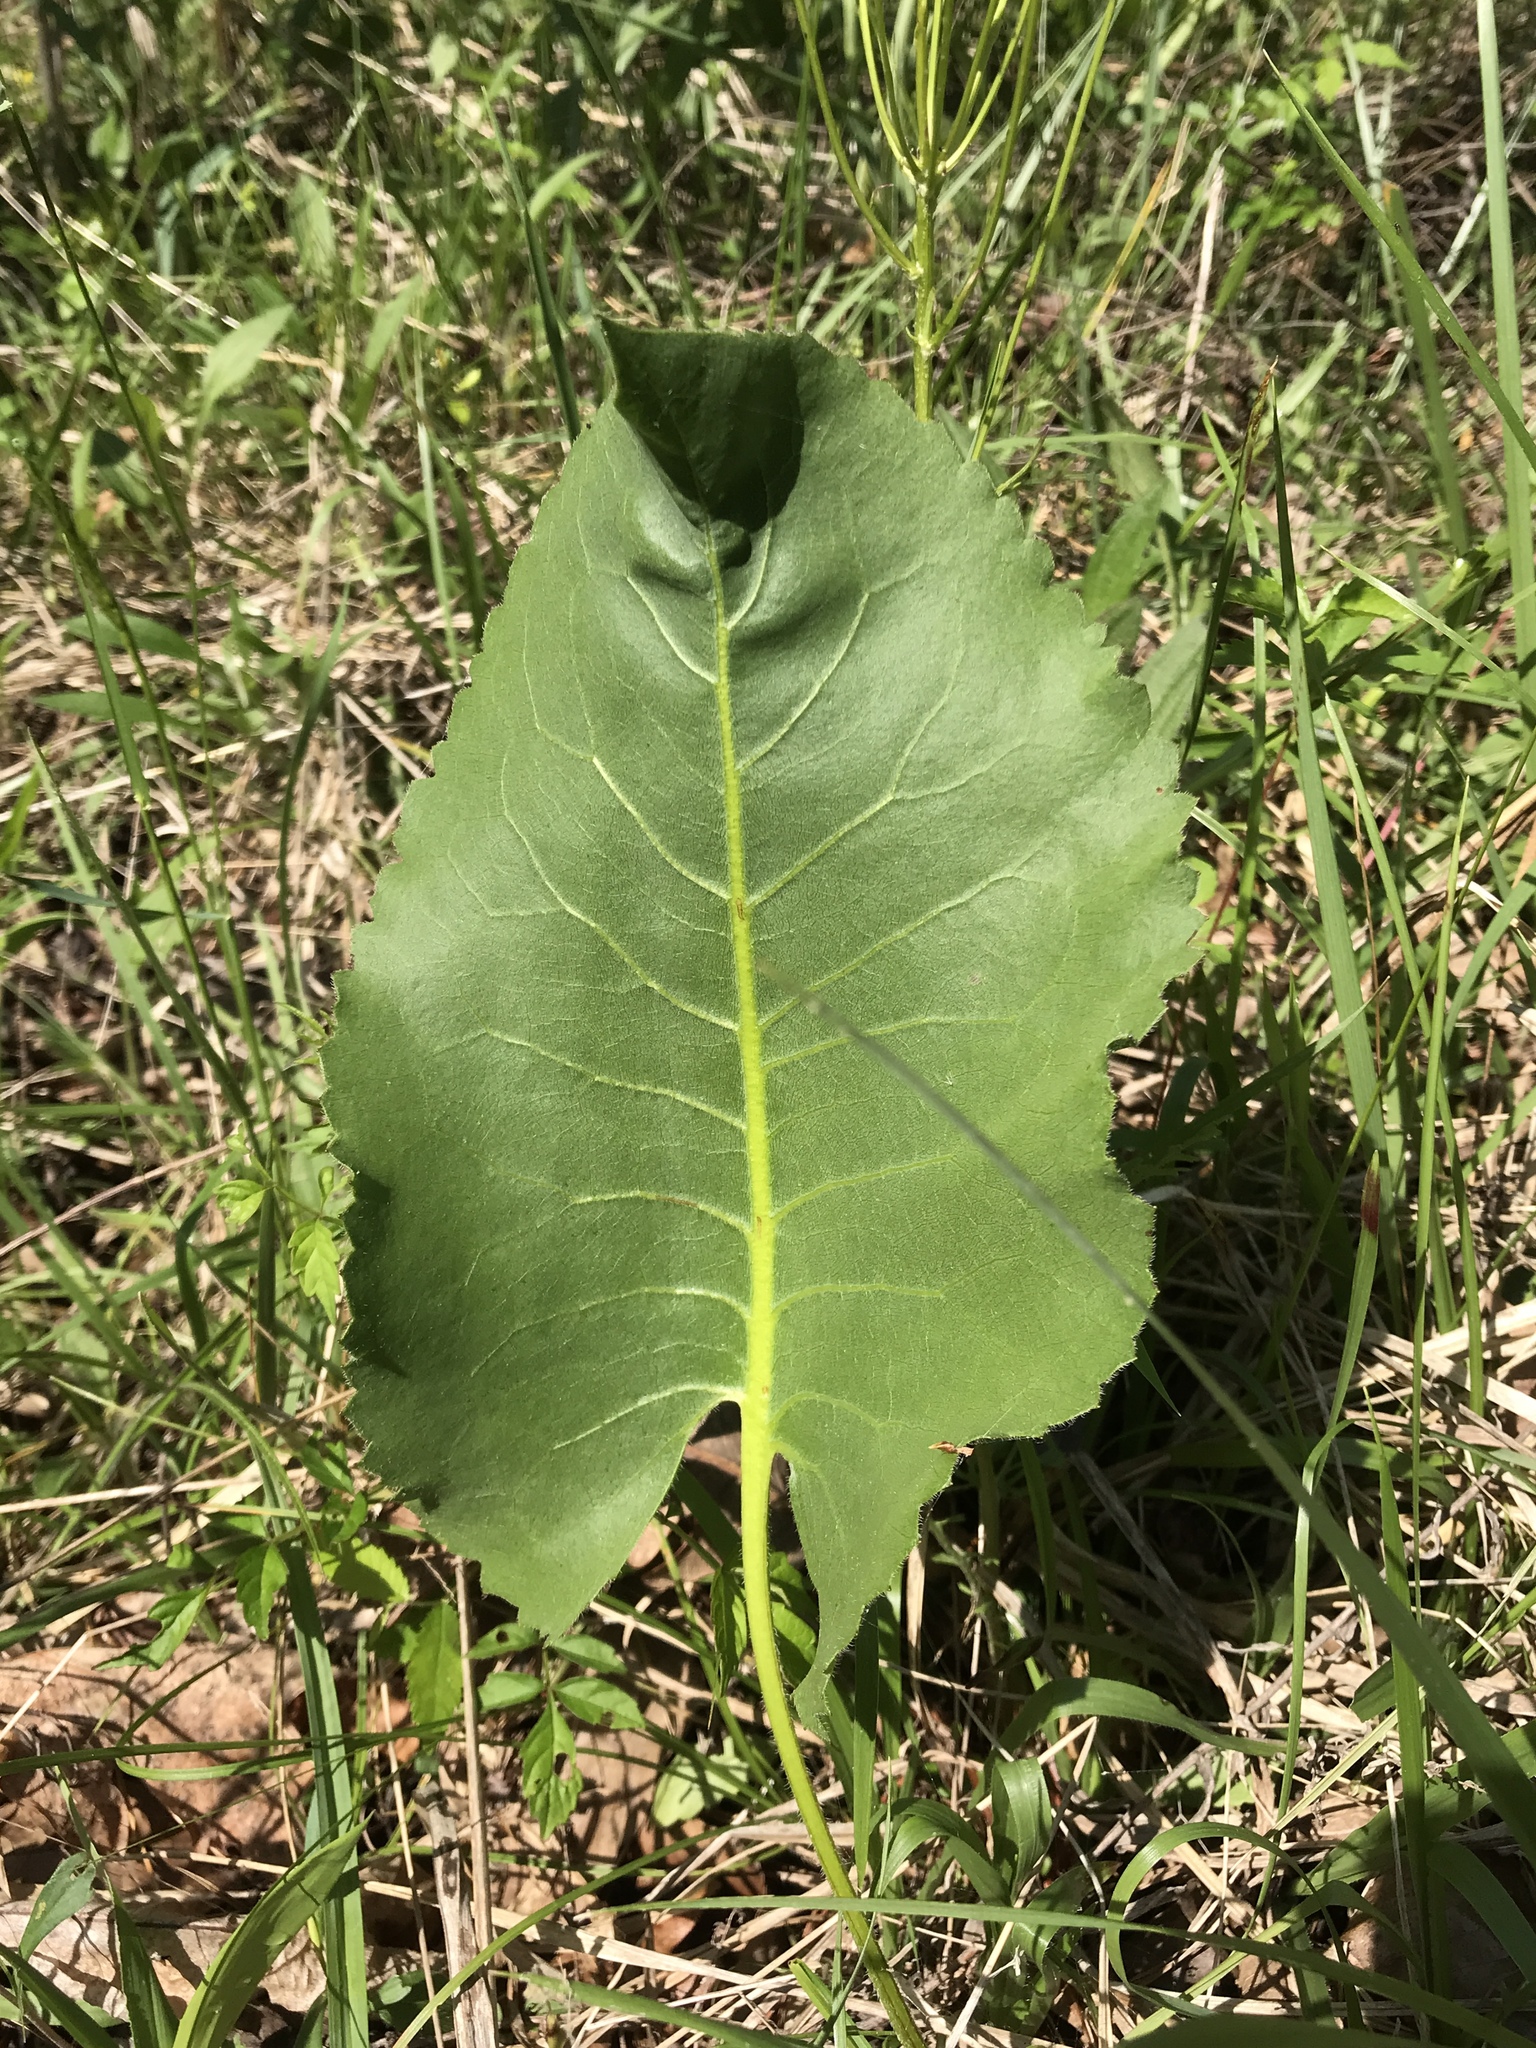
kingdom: Plantae
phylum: Tracheophyta
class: Magnoliopsida
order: Asterales
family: Asteraceae
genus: Silphium
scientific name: Silphium terebinthinaceum
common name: Basal-leaf rosinweed
